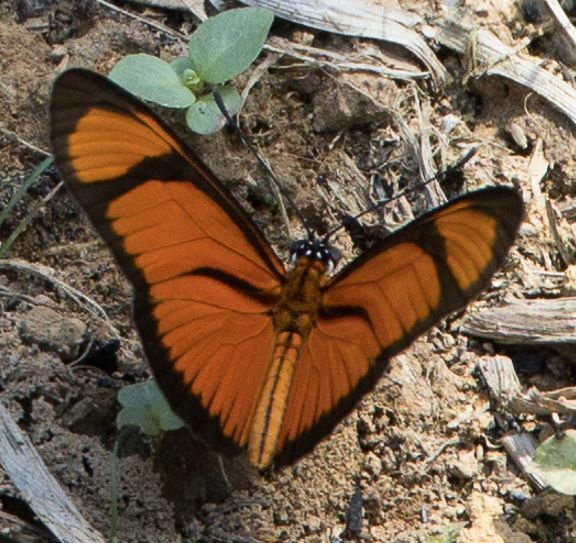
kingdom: Animalia
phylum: Arthropoda
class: Insecta
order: Lepidoptera
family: Nymphalidae
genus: Heliconius
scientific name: Heliconius aliphera
